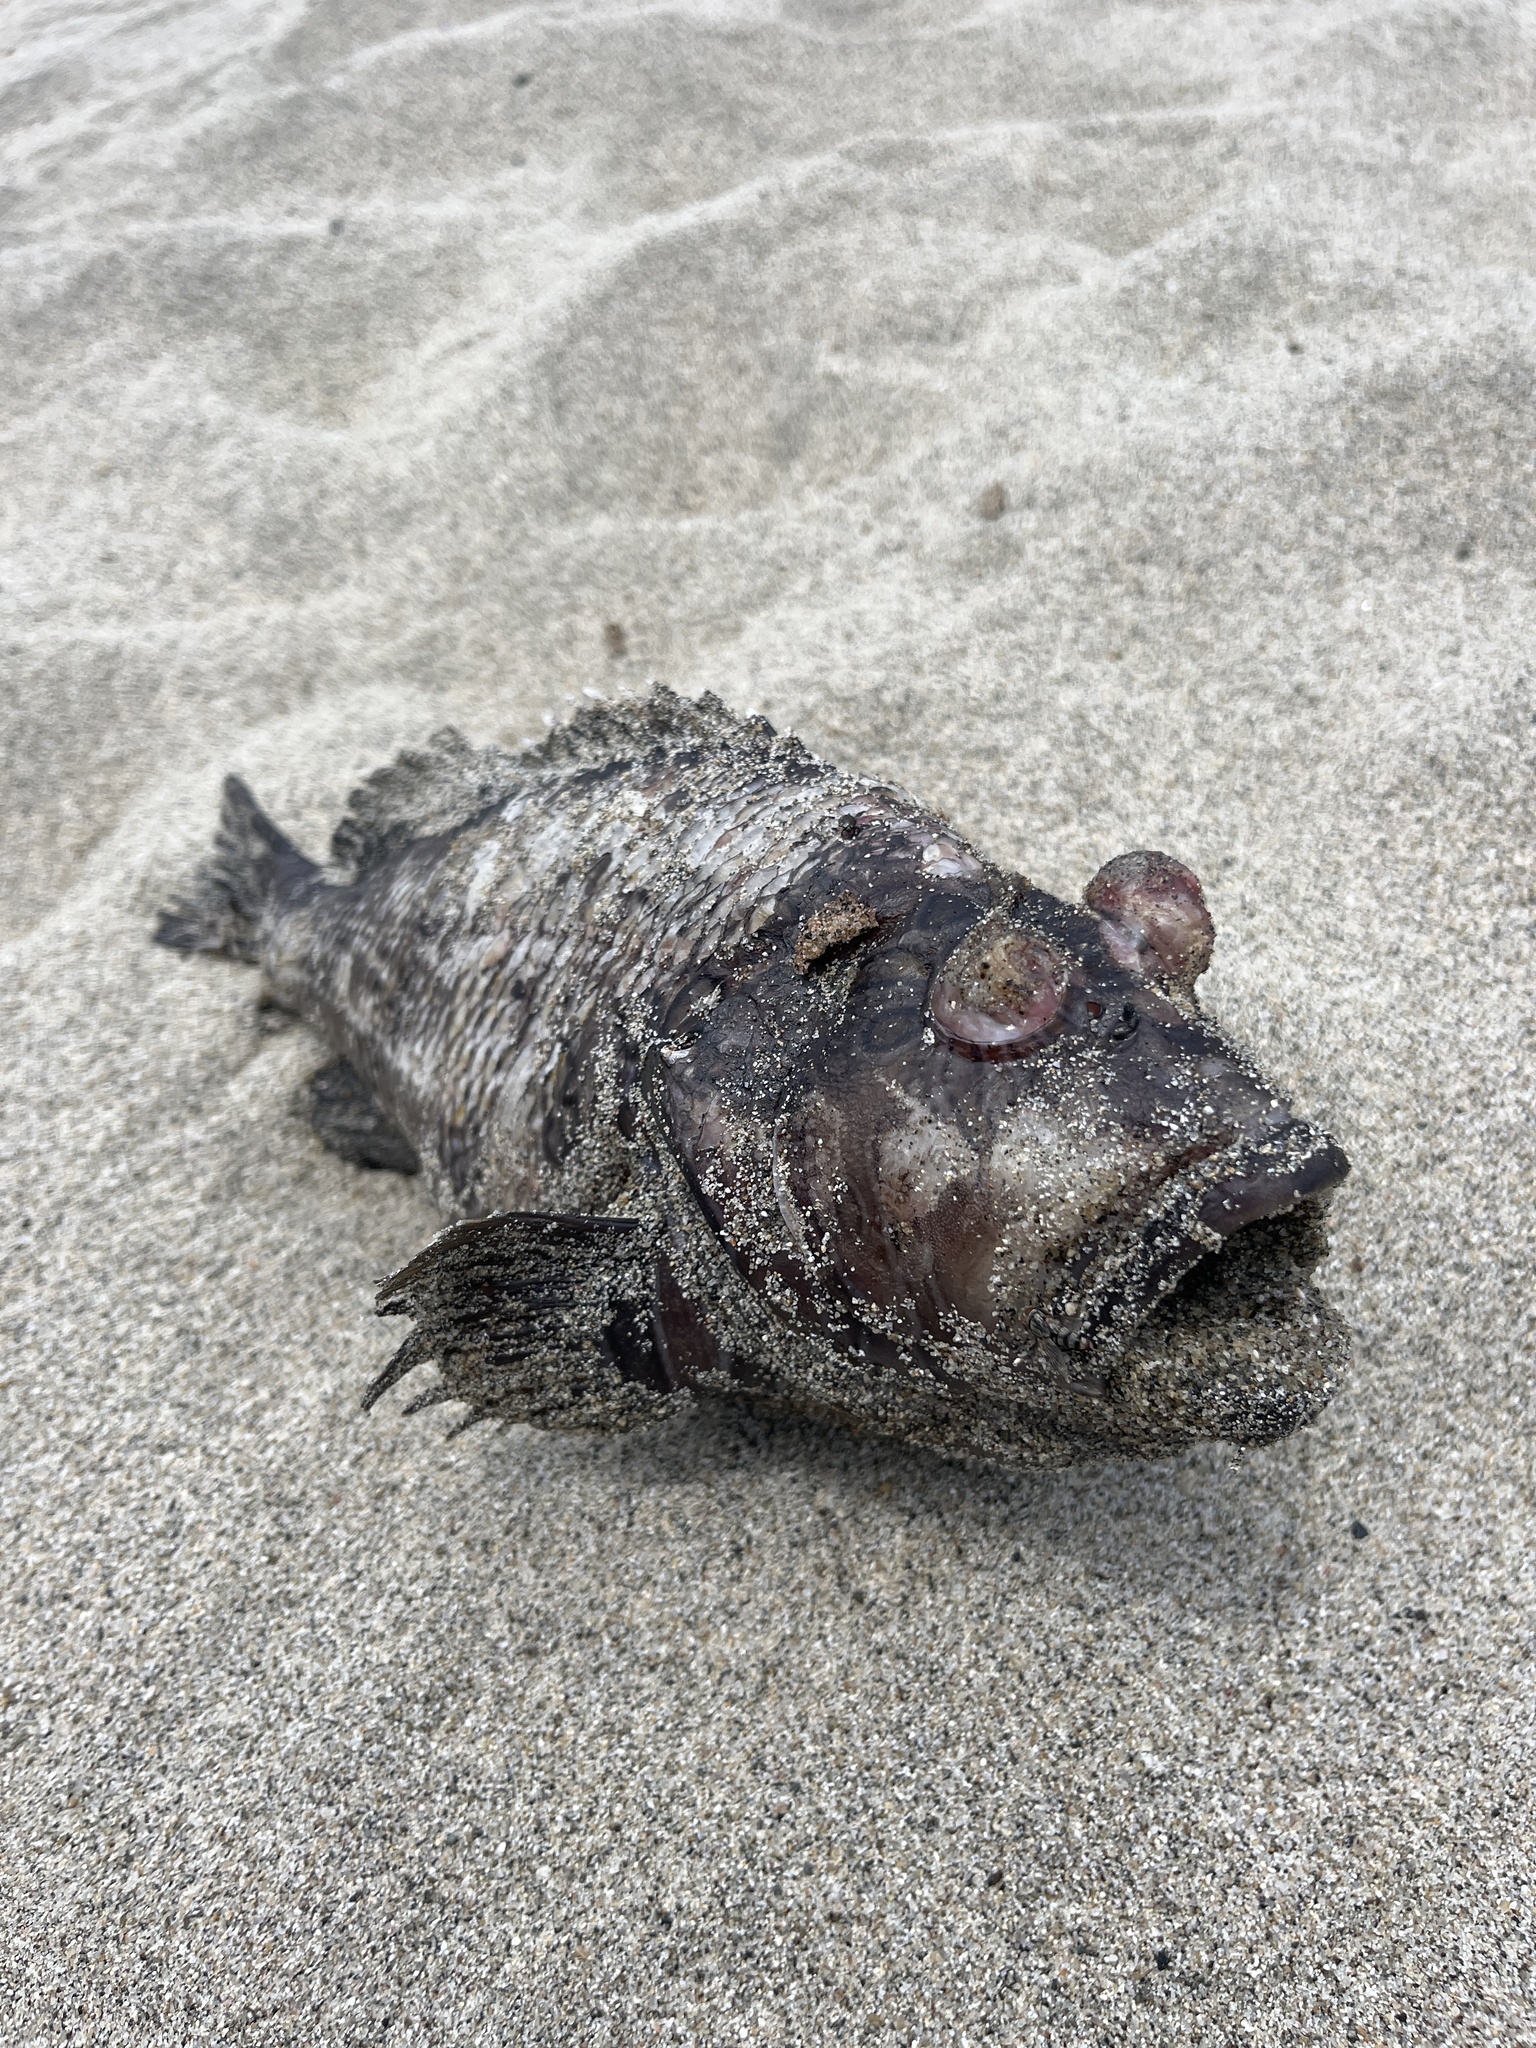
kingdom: Animalia
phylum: Chordata
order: Perciformes
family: Cirrhitidae
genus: Cirrhitus
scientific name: Cirrhitus rivulatus
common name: Giant hawkfish
